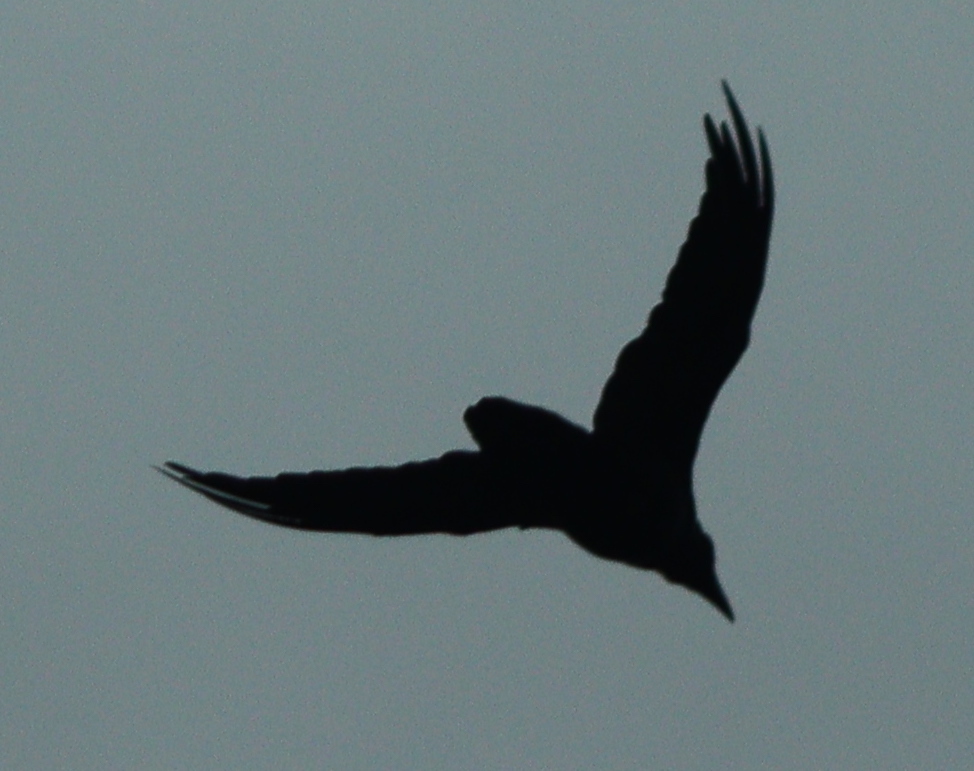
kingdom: Animalia
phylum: Chordata
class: Aves
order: Passeriformes
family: Corvidae
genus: Corvus
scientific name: Corvus corax
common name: Common raven
